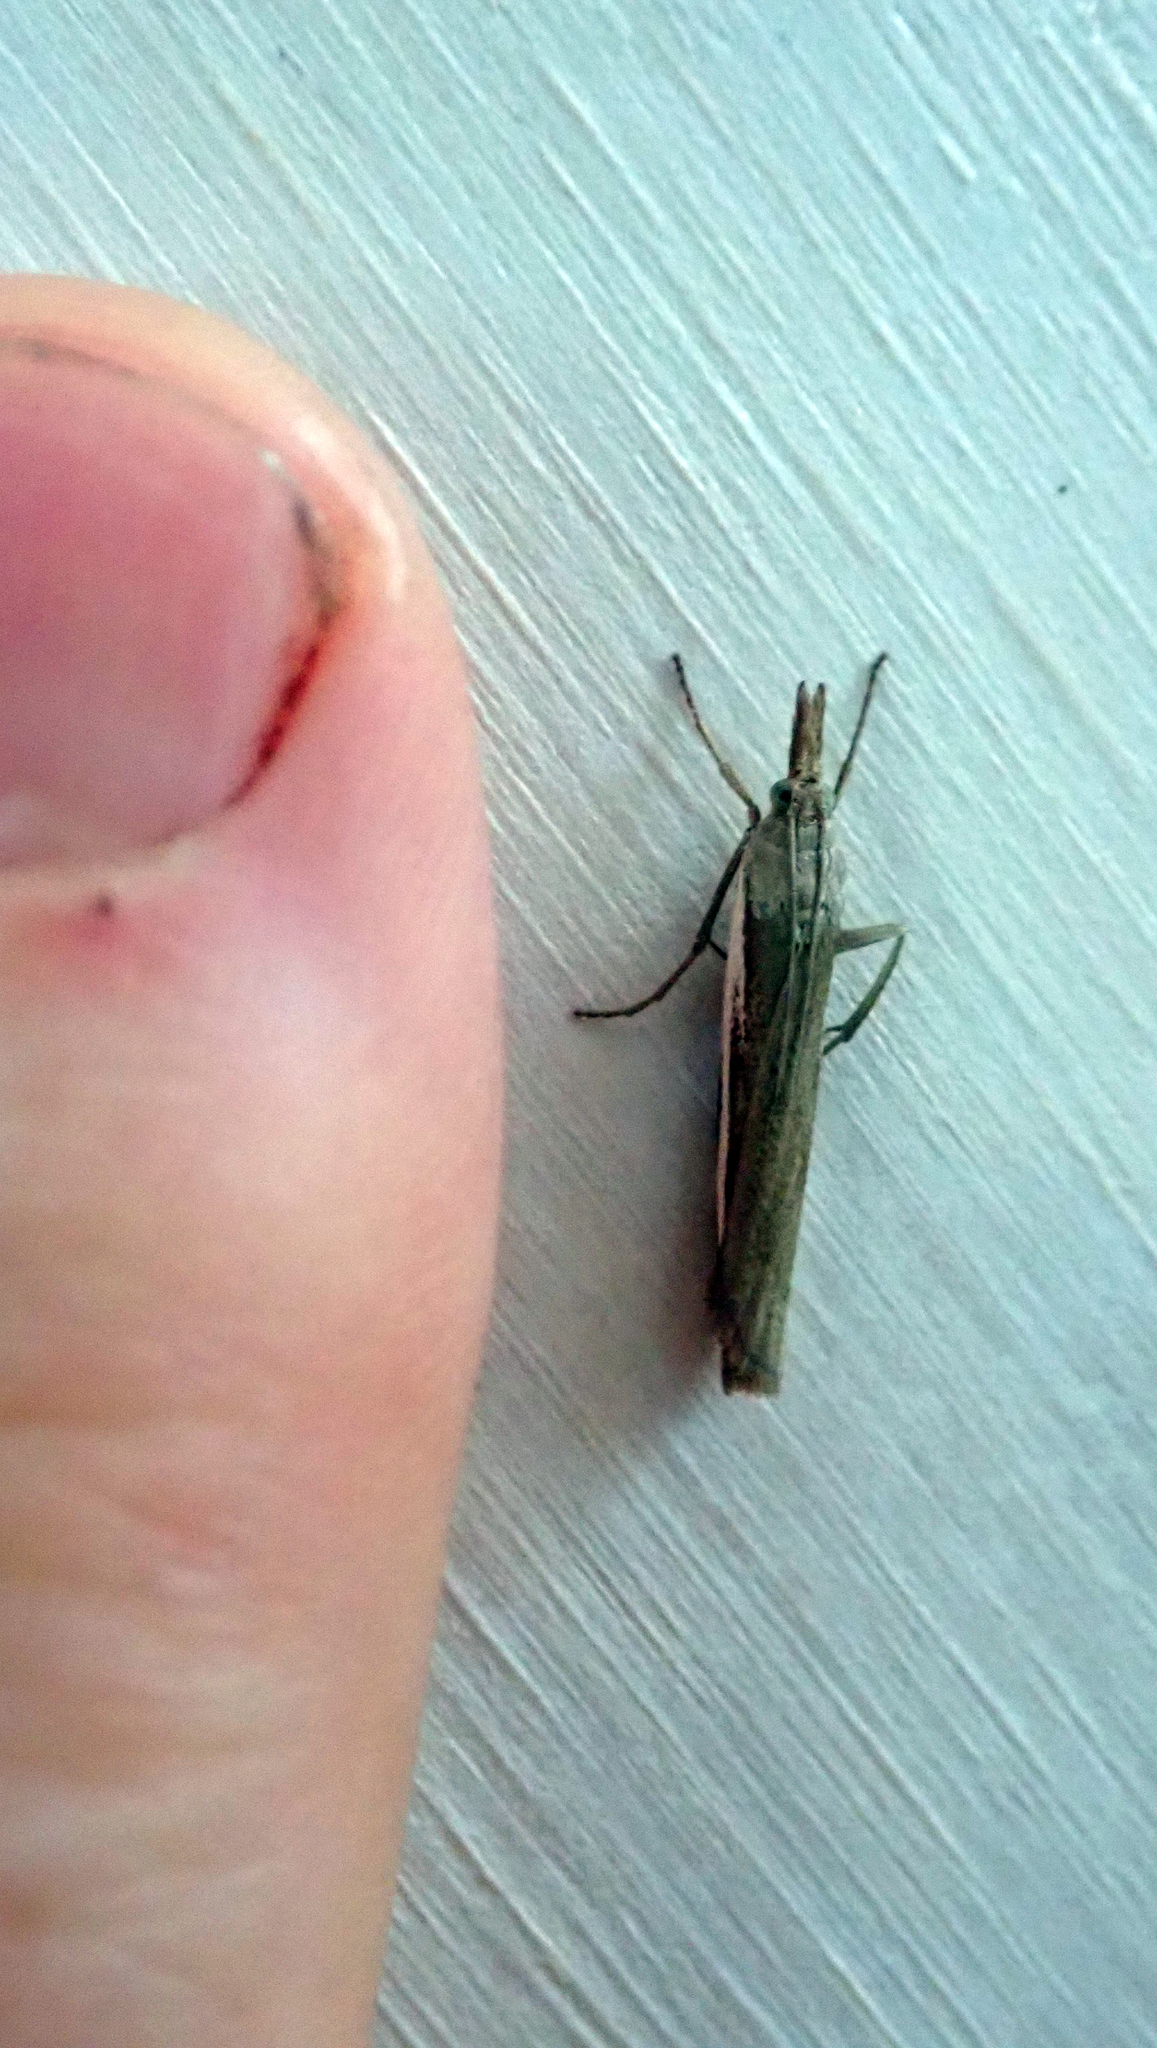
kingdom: Animalia
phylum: Arthropoda
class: Insecta
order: Lepidoptera
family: Crambidae
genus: Orocrambus
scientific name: Orocrambus horistes
